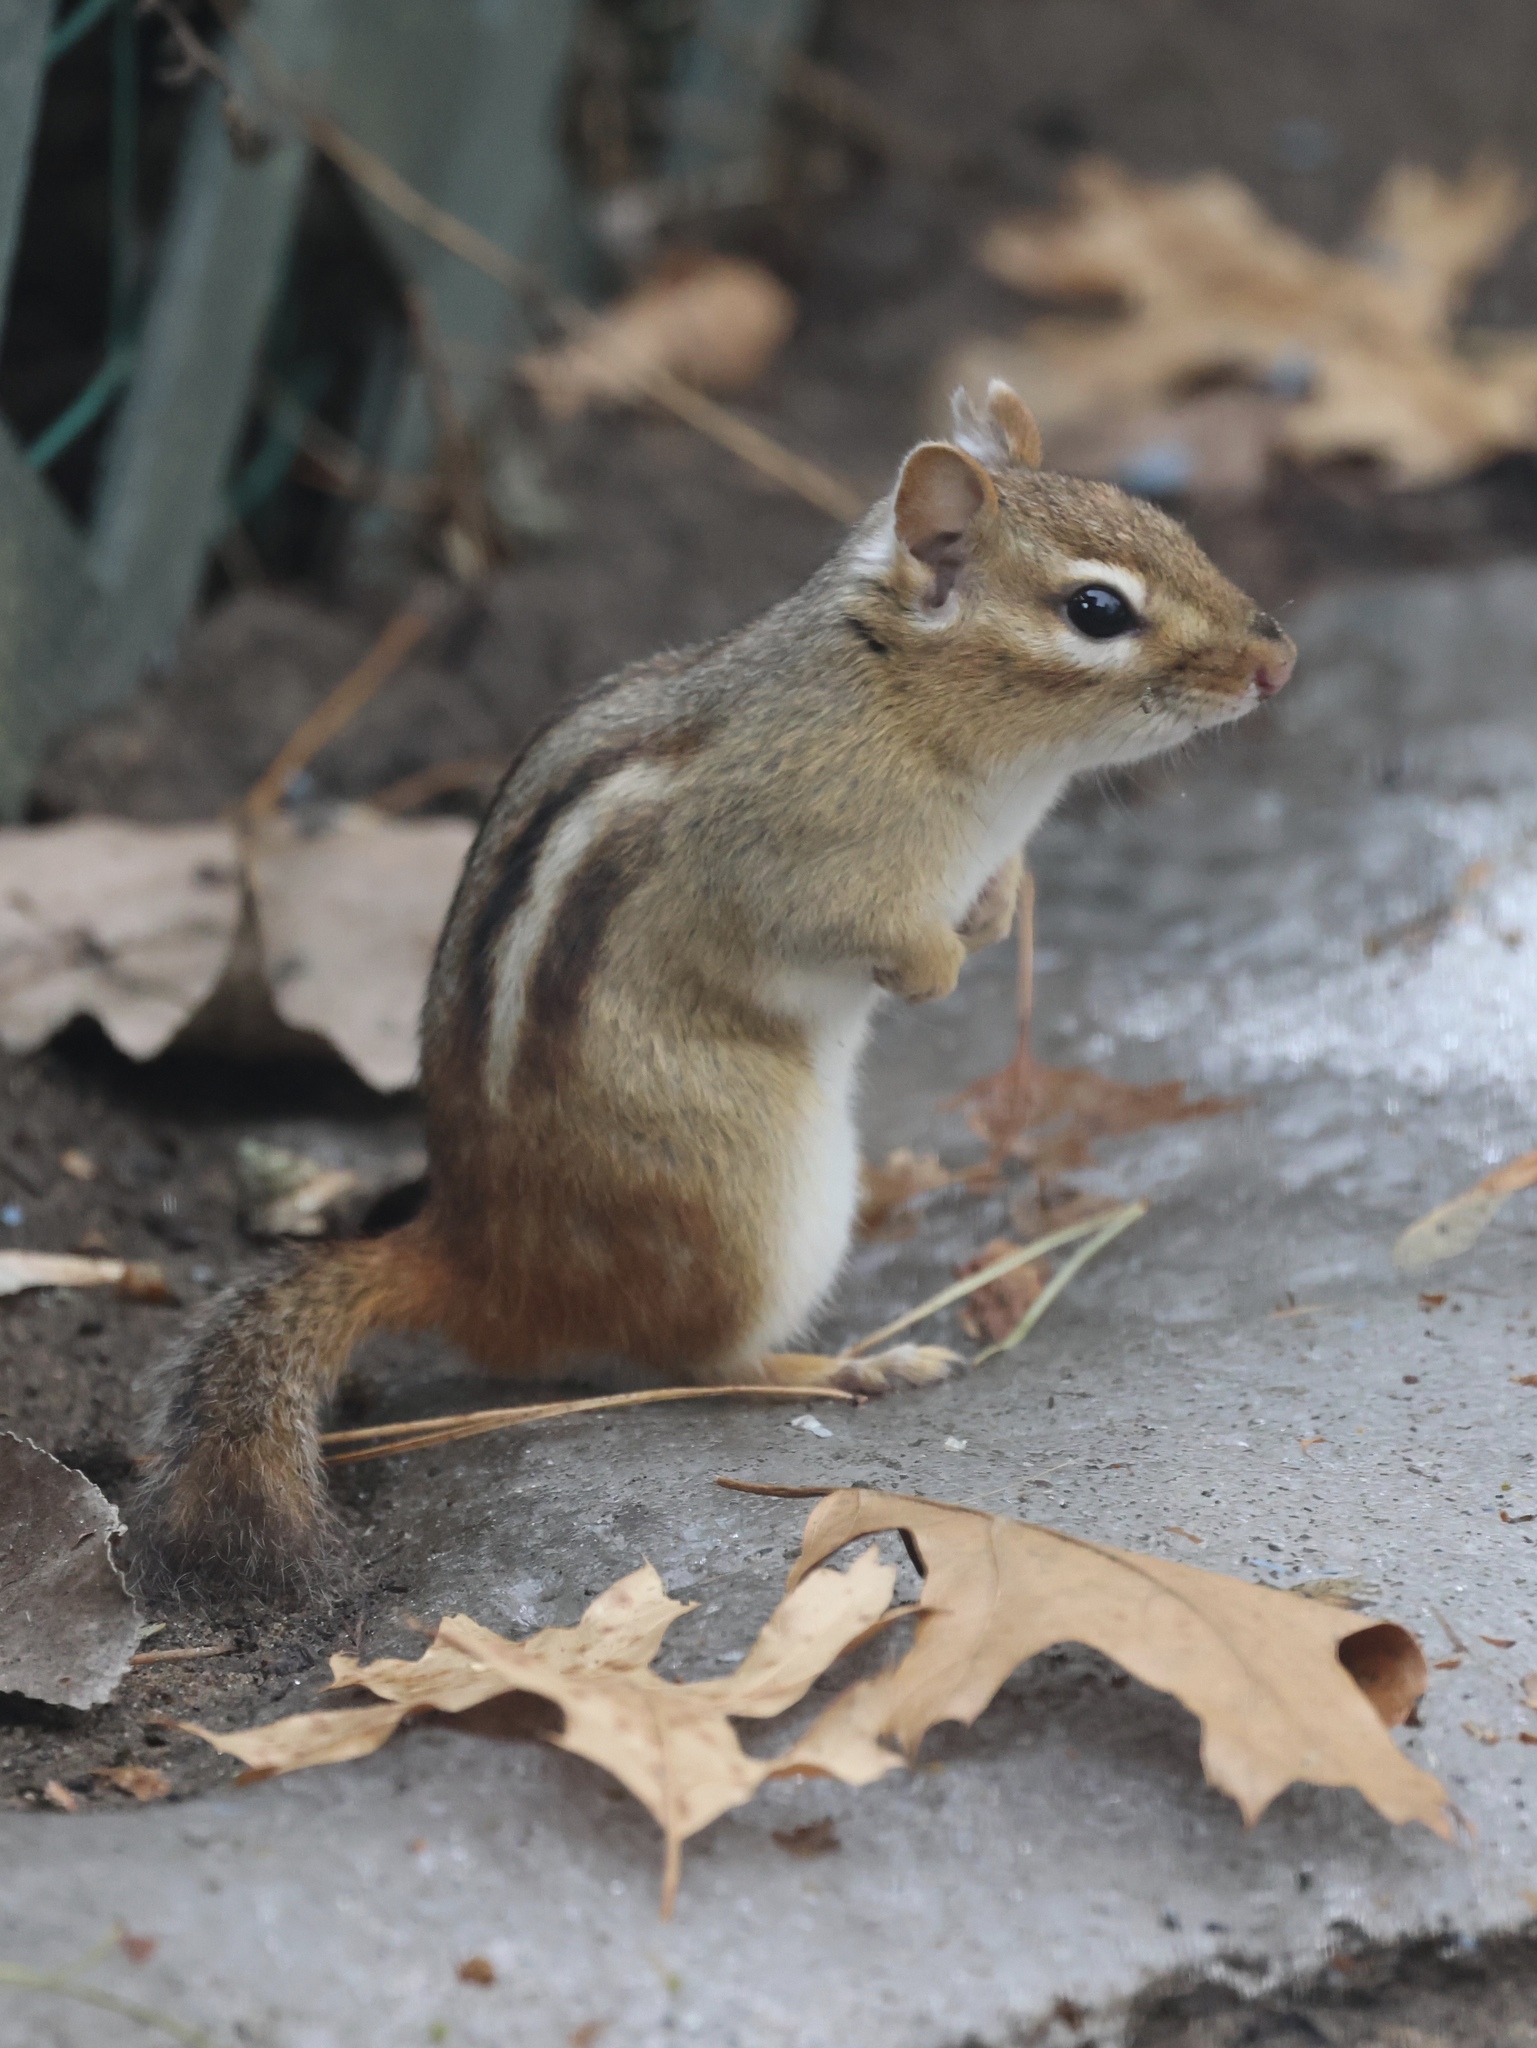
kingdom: Animalia
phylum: Chordata
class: Mammalia
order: Rodentia
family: Sciuridae
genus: Tamias
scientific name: Tamias striatus
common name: Eastern chipmunk
